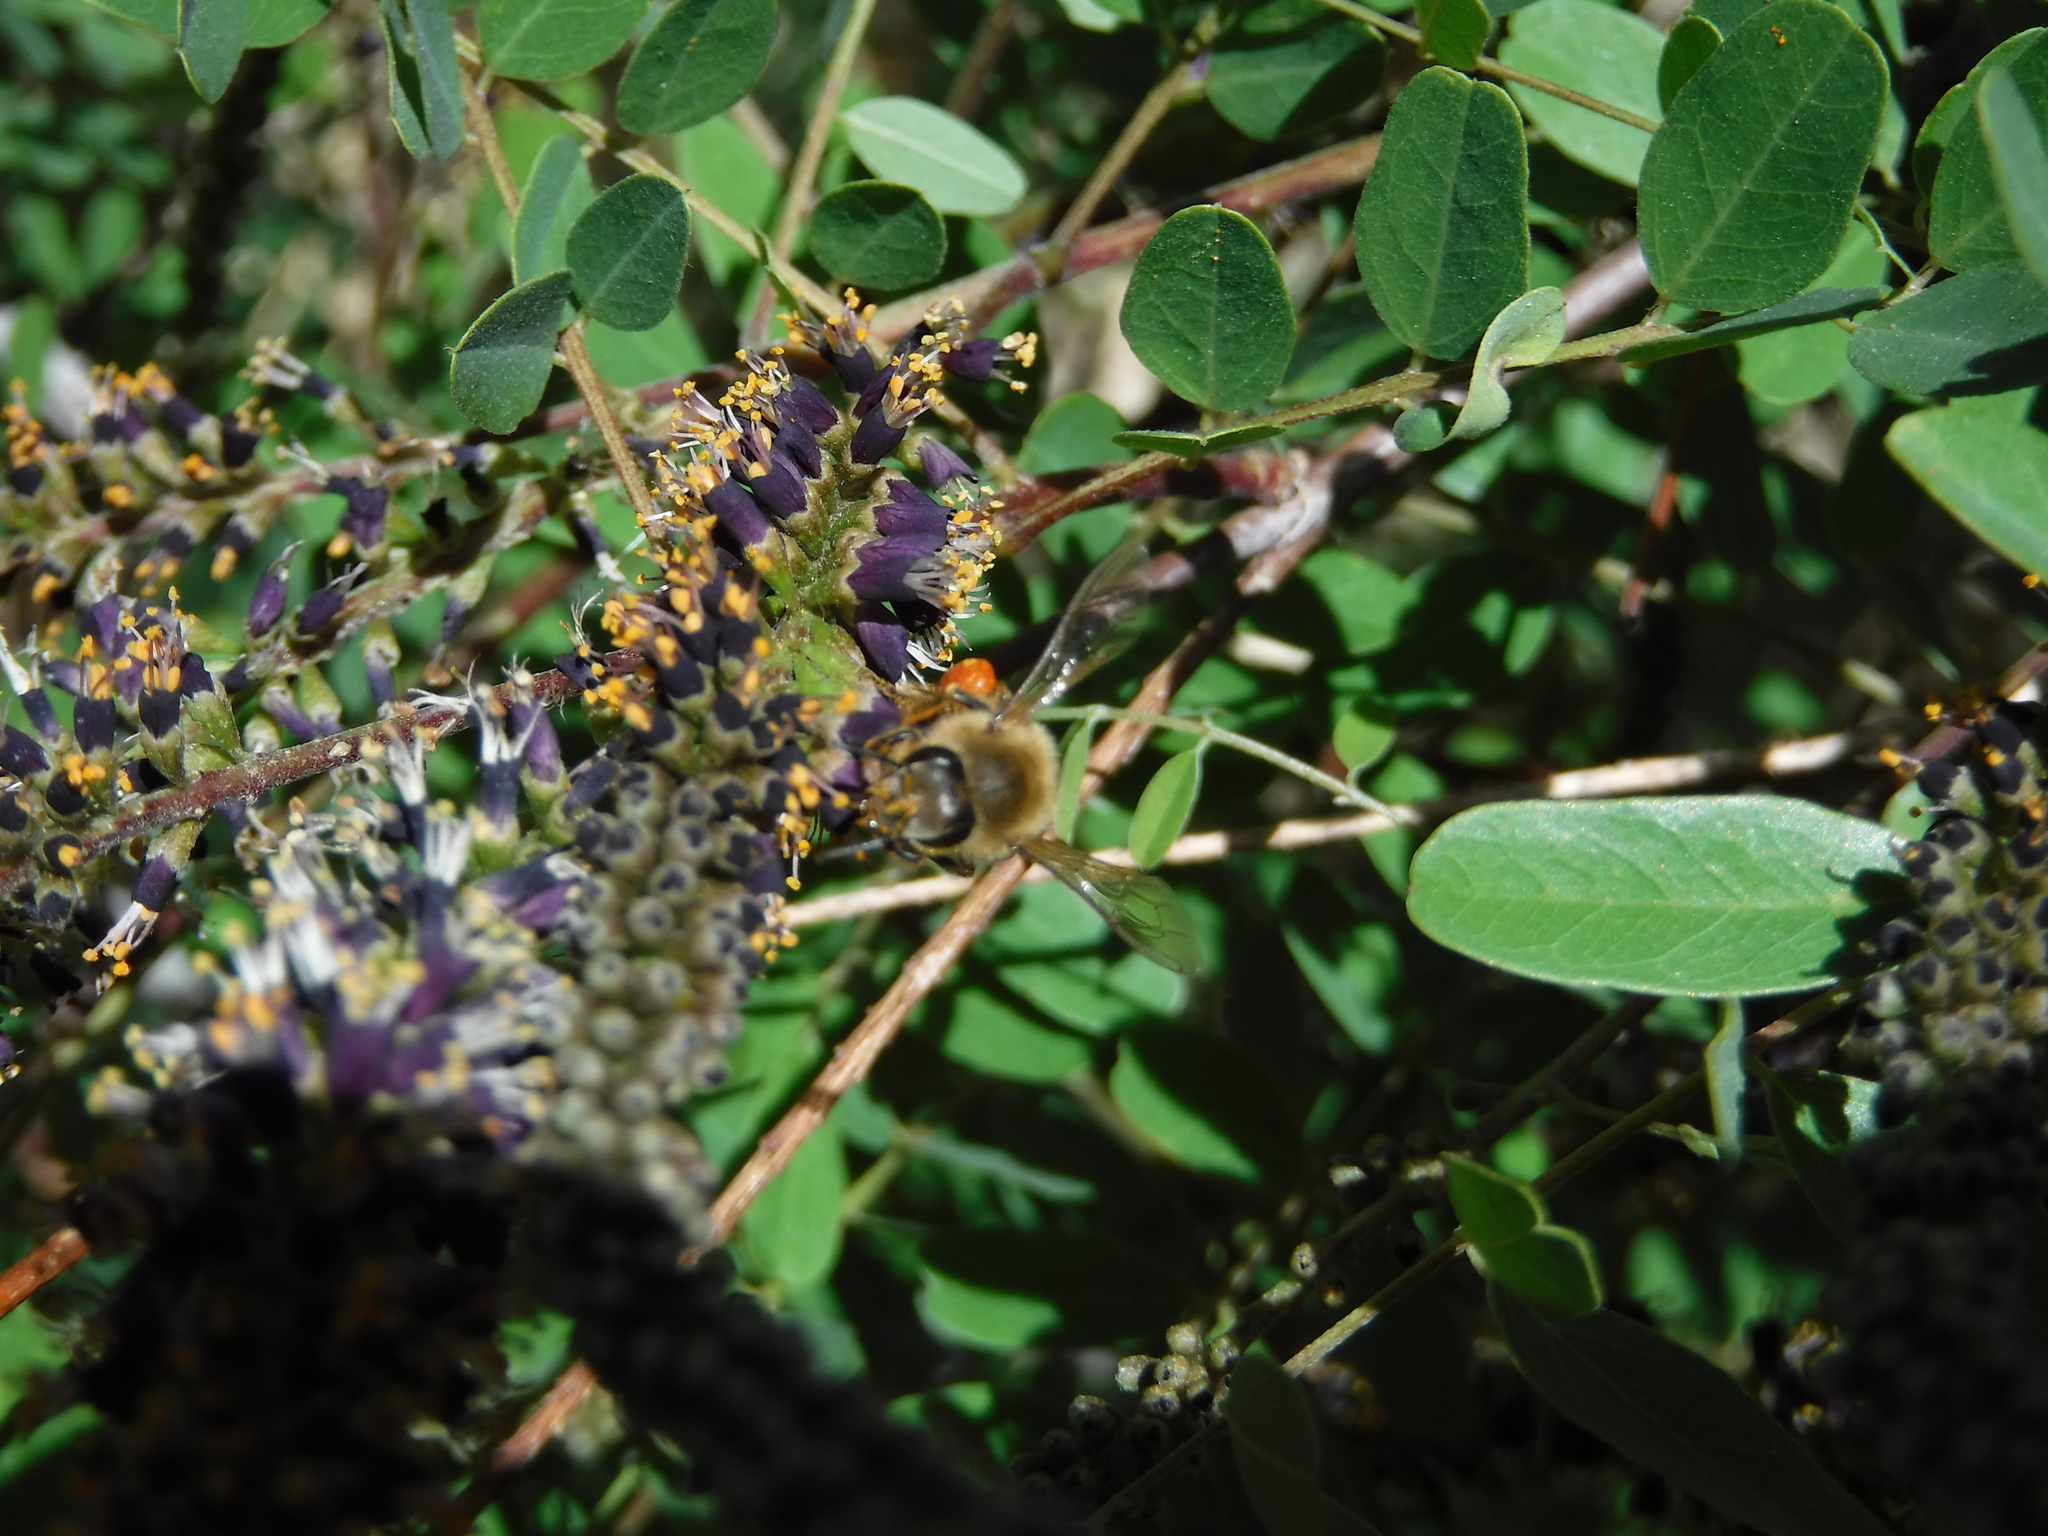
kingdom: Animalia
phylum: Arthropoda
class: Insecta
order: Hymenoptera
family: Apidae
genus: Apis
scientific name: Apis mellifera
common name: Honey bee
